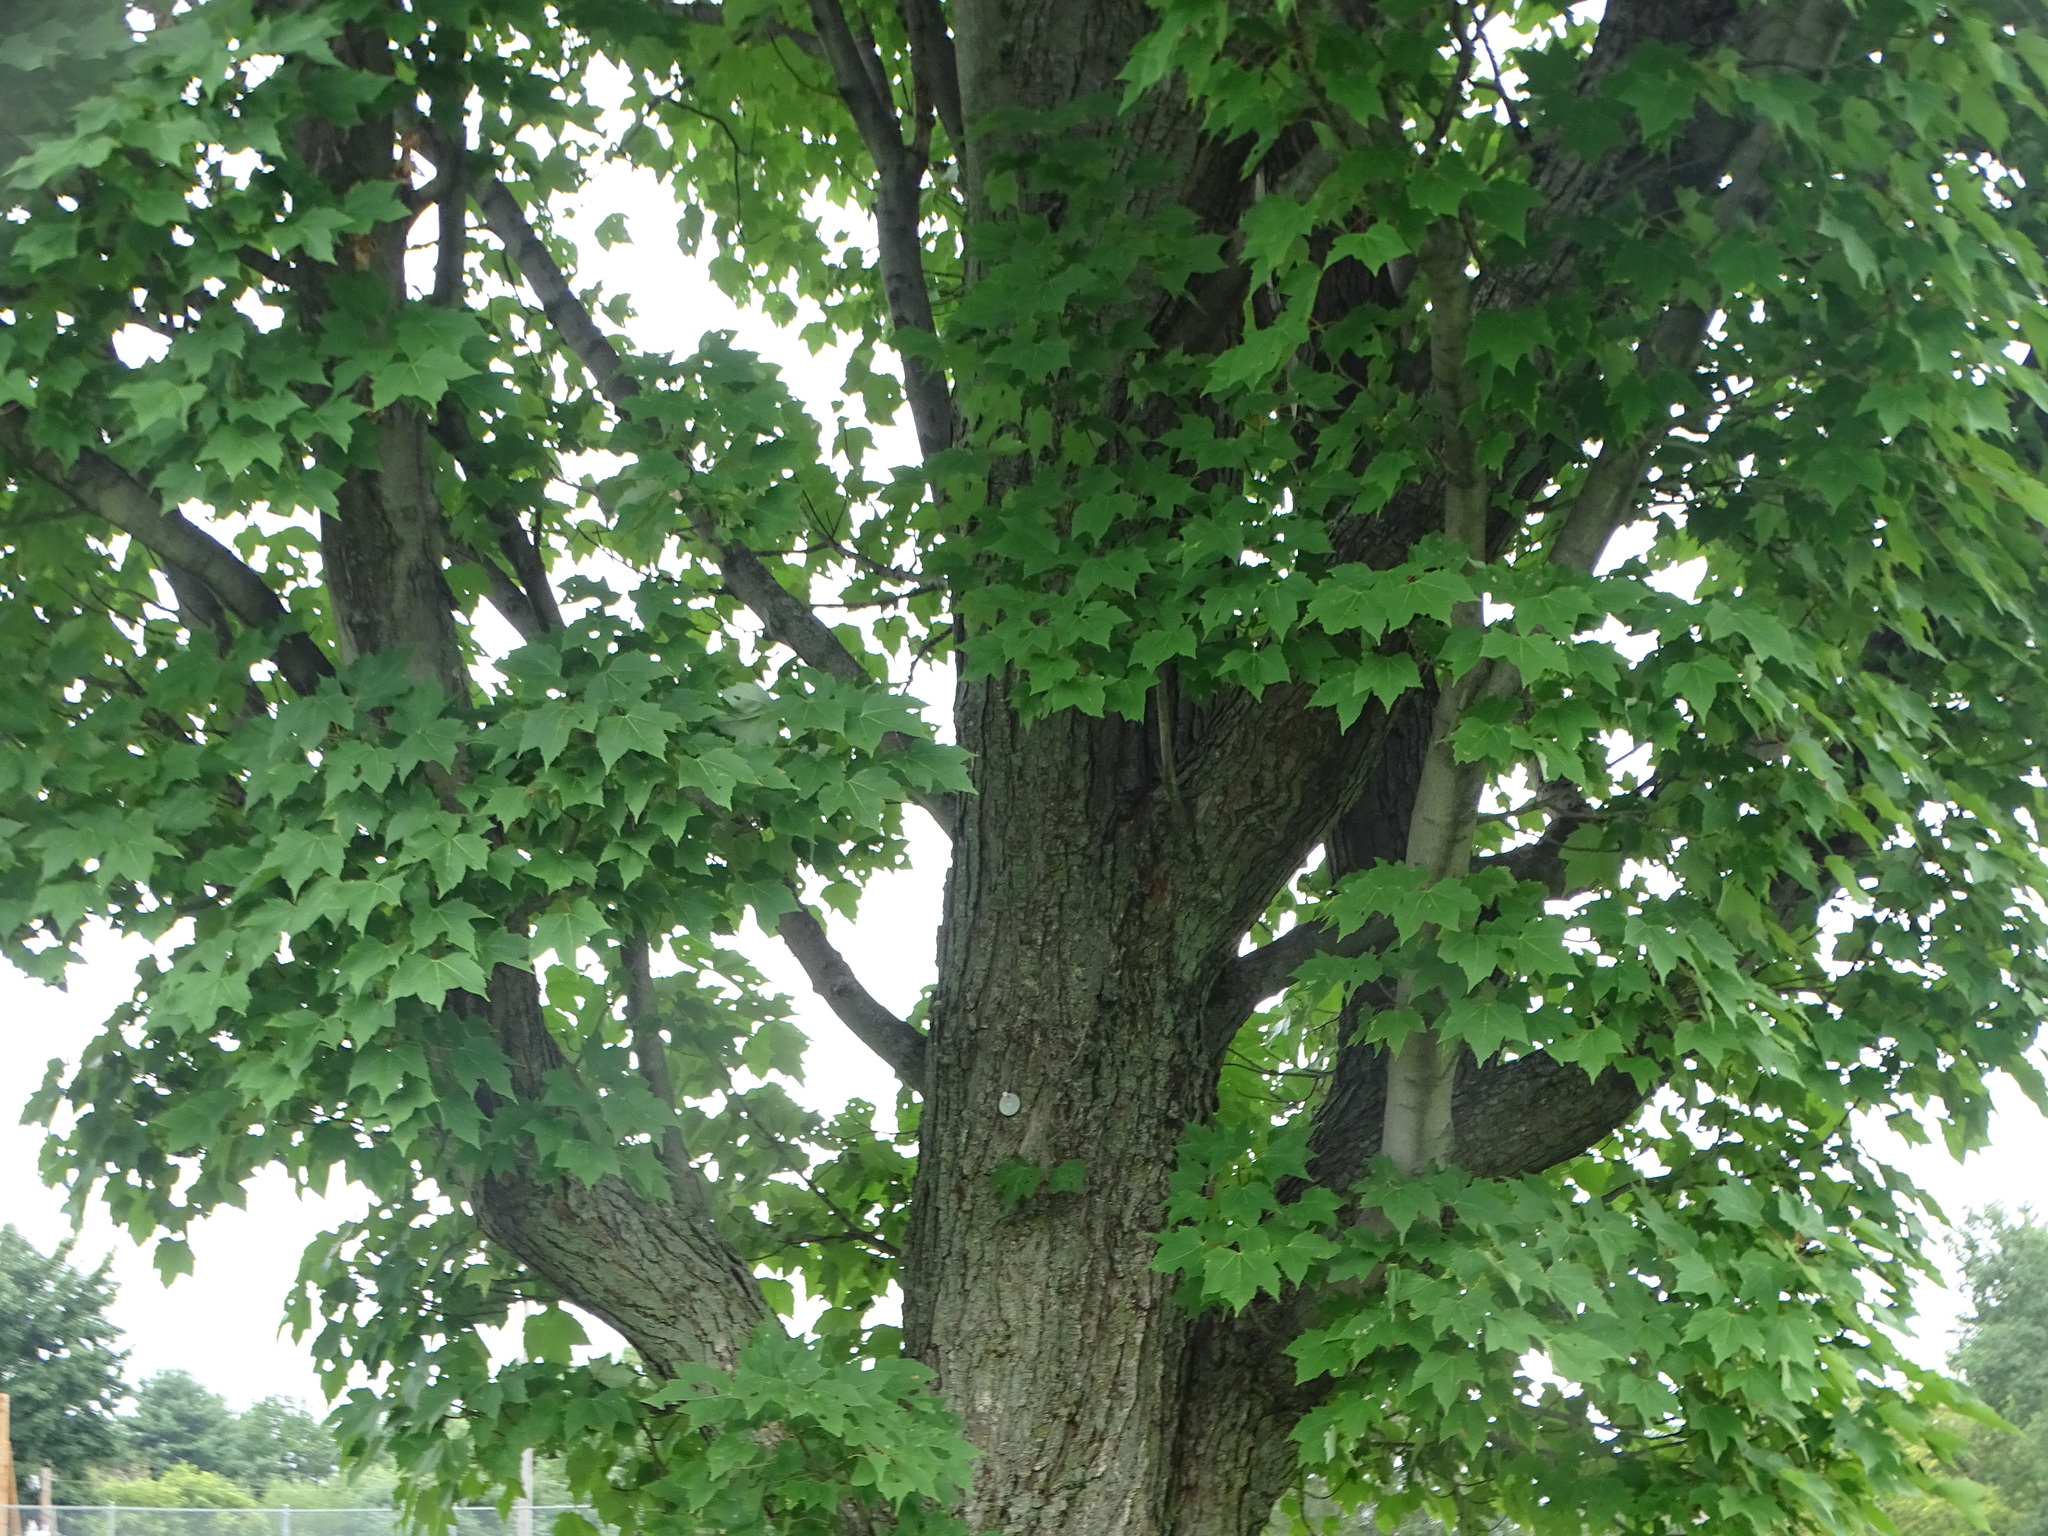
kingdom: Plantae
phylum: Tracheophyta
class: Magnoliopsida
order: Sapindales
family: Sapindaceae
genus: Acer
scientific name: Acer rubrum
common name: Red maple
